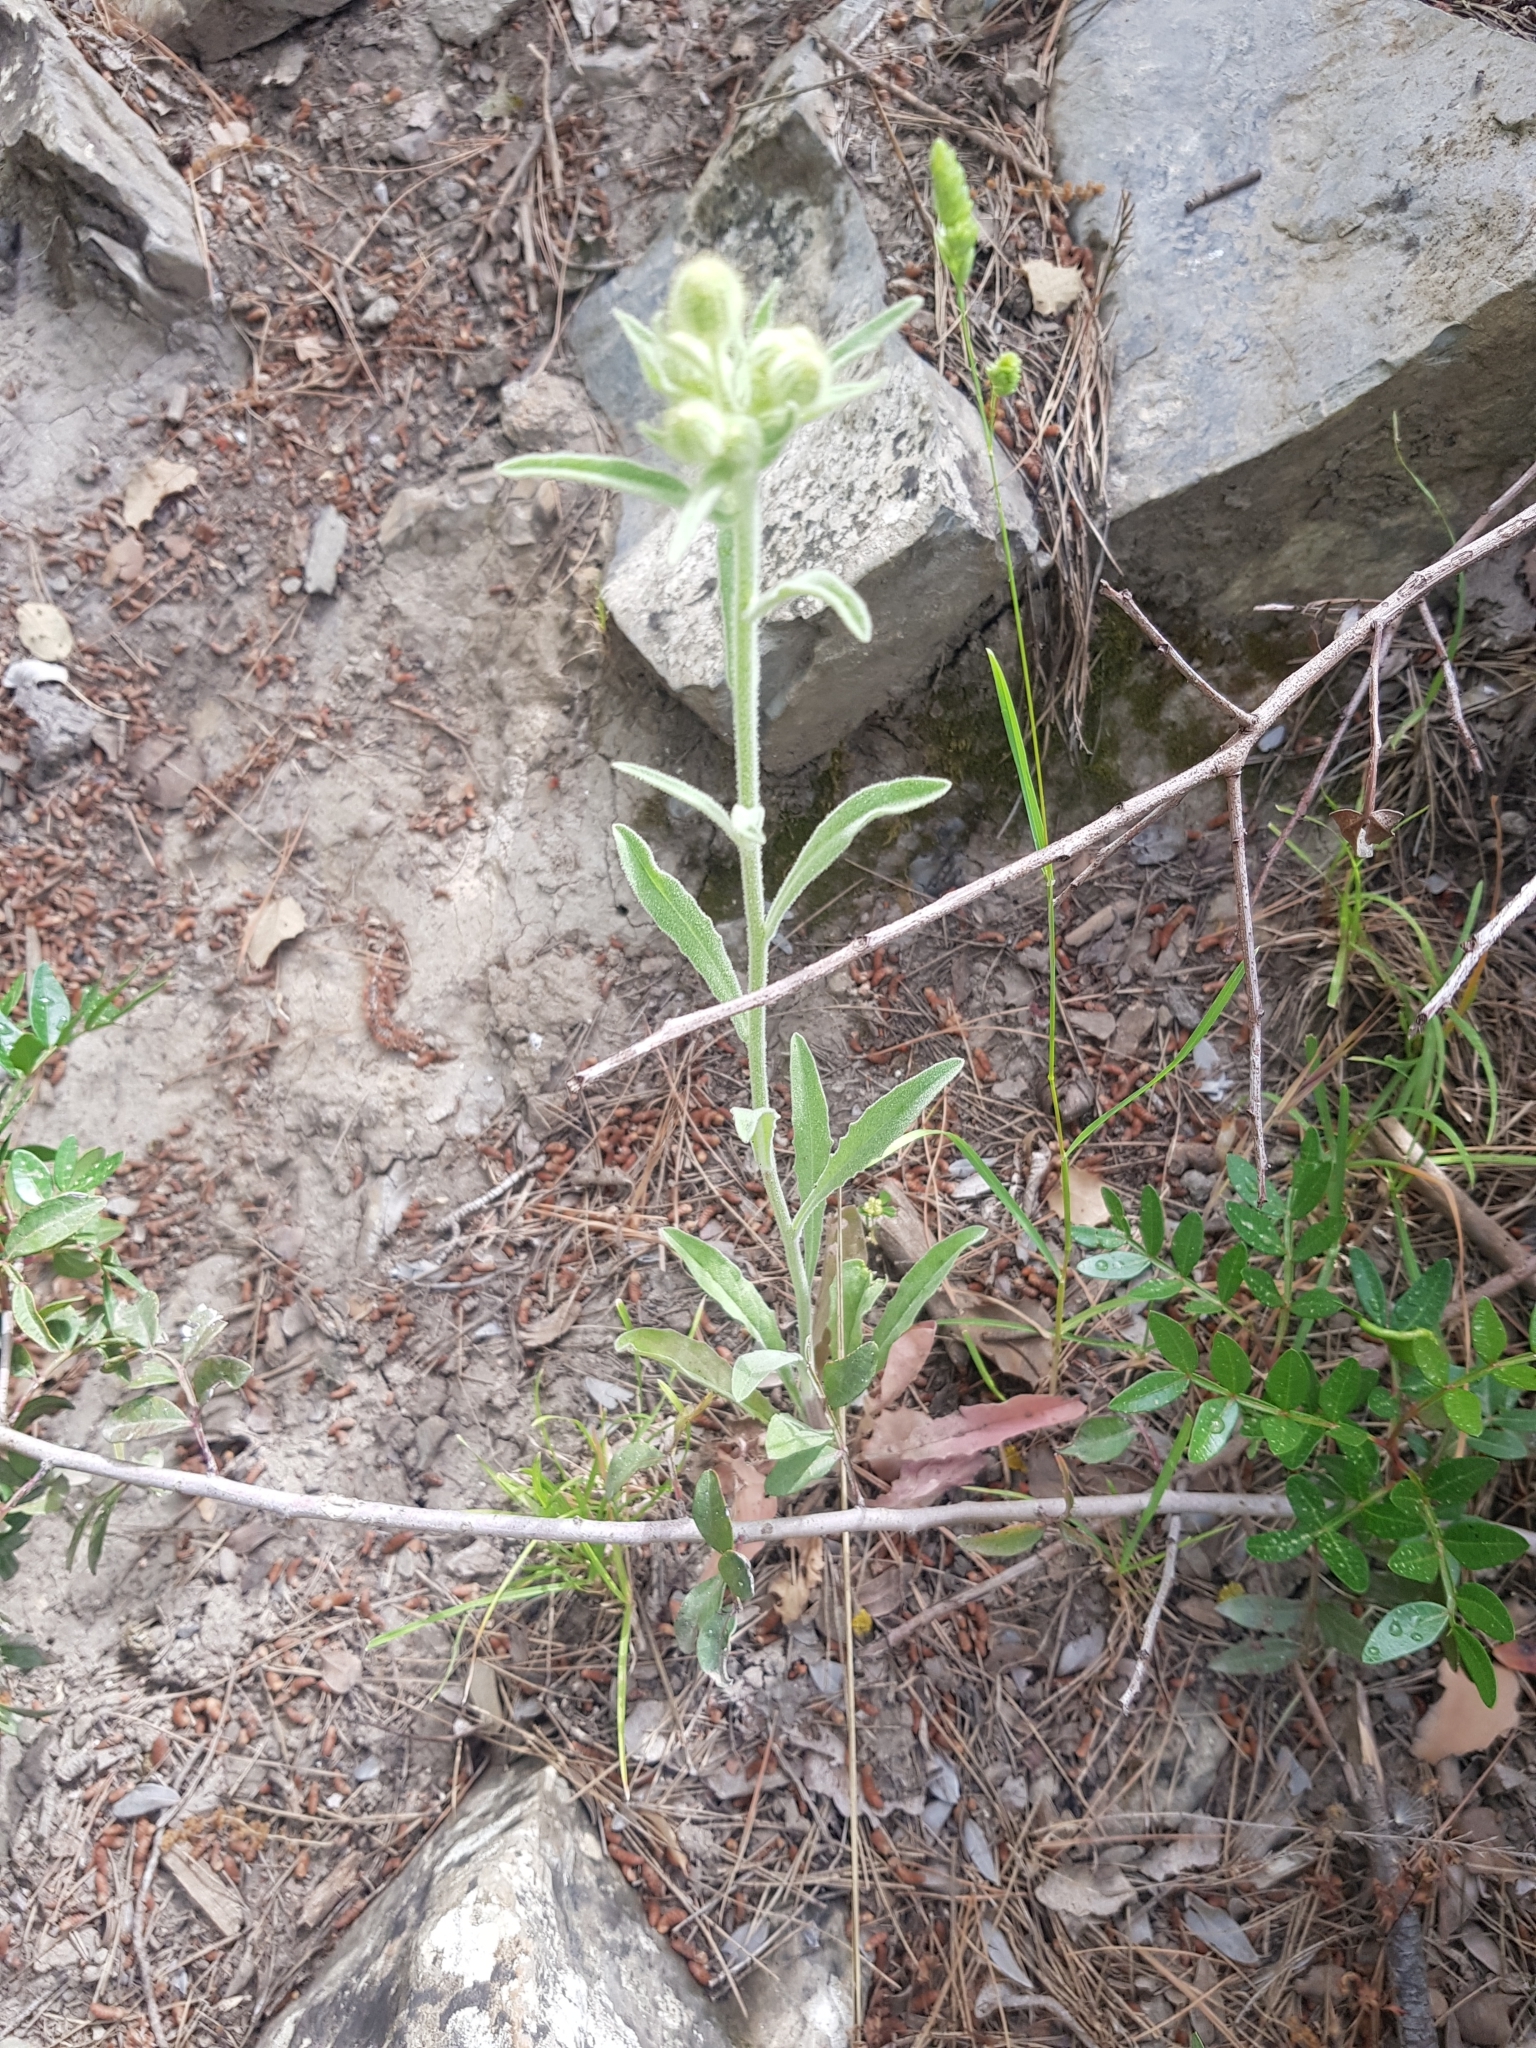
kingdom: Plantae
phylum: Tracheophyta
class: Magnoliopsida
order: Asterales
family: Asteraceae
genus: Andryala
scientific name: Andryala integrifolia
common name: Common andryala
